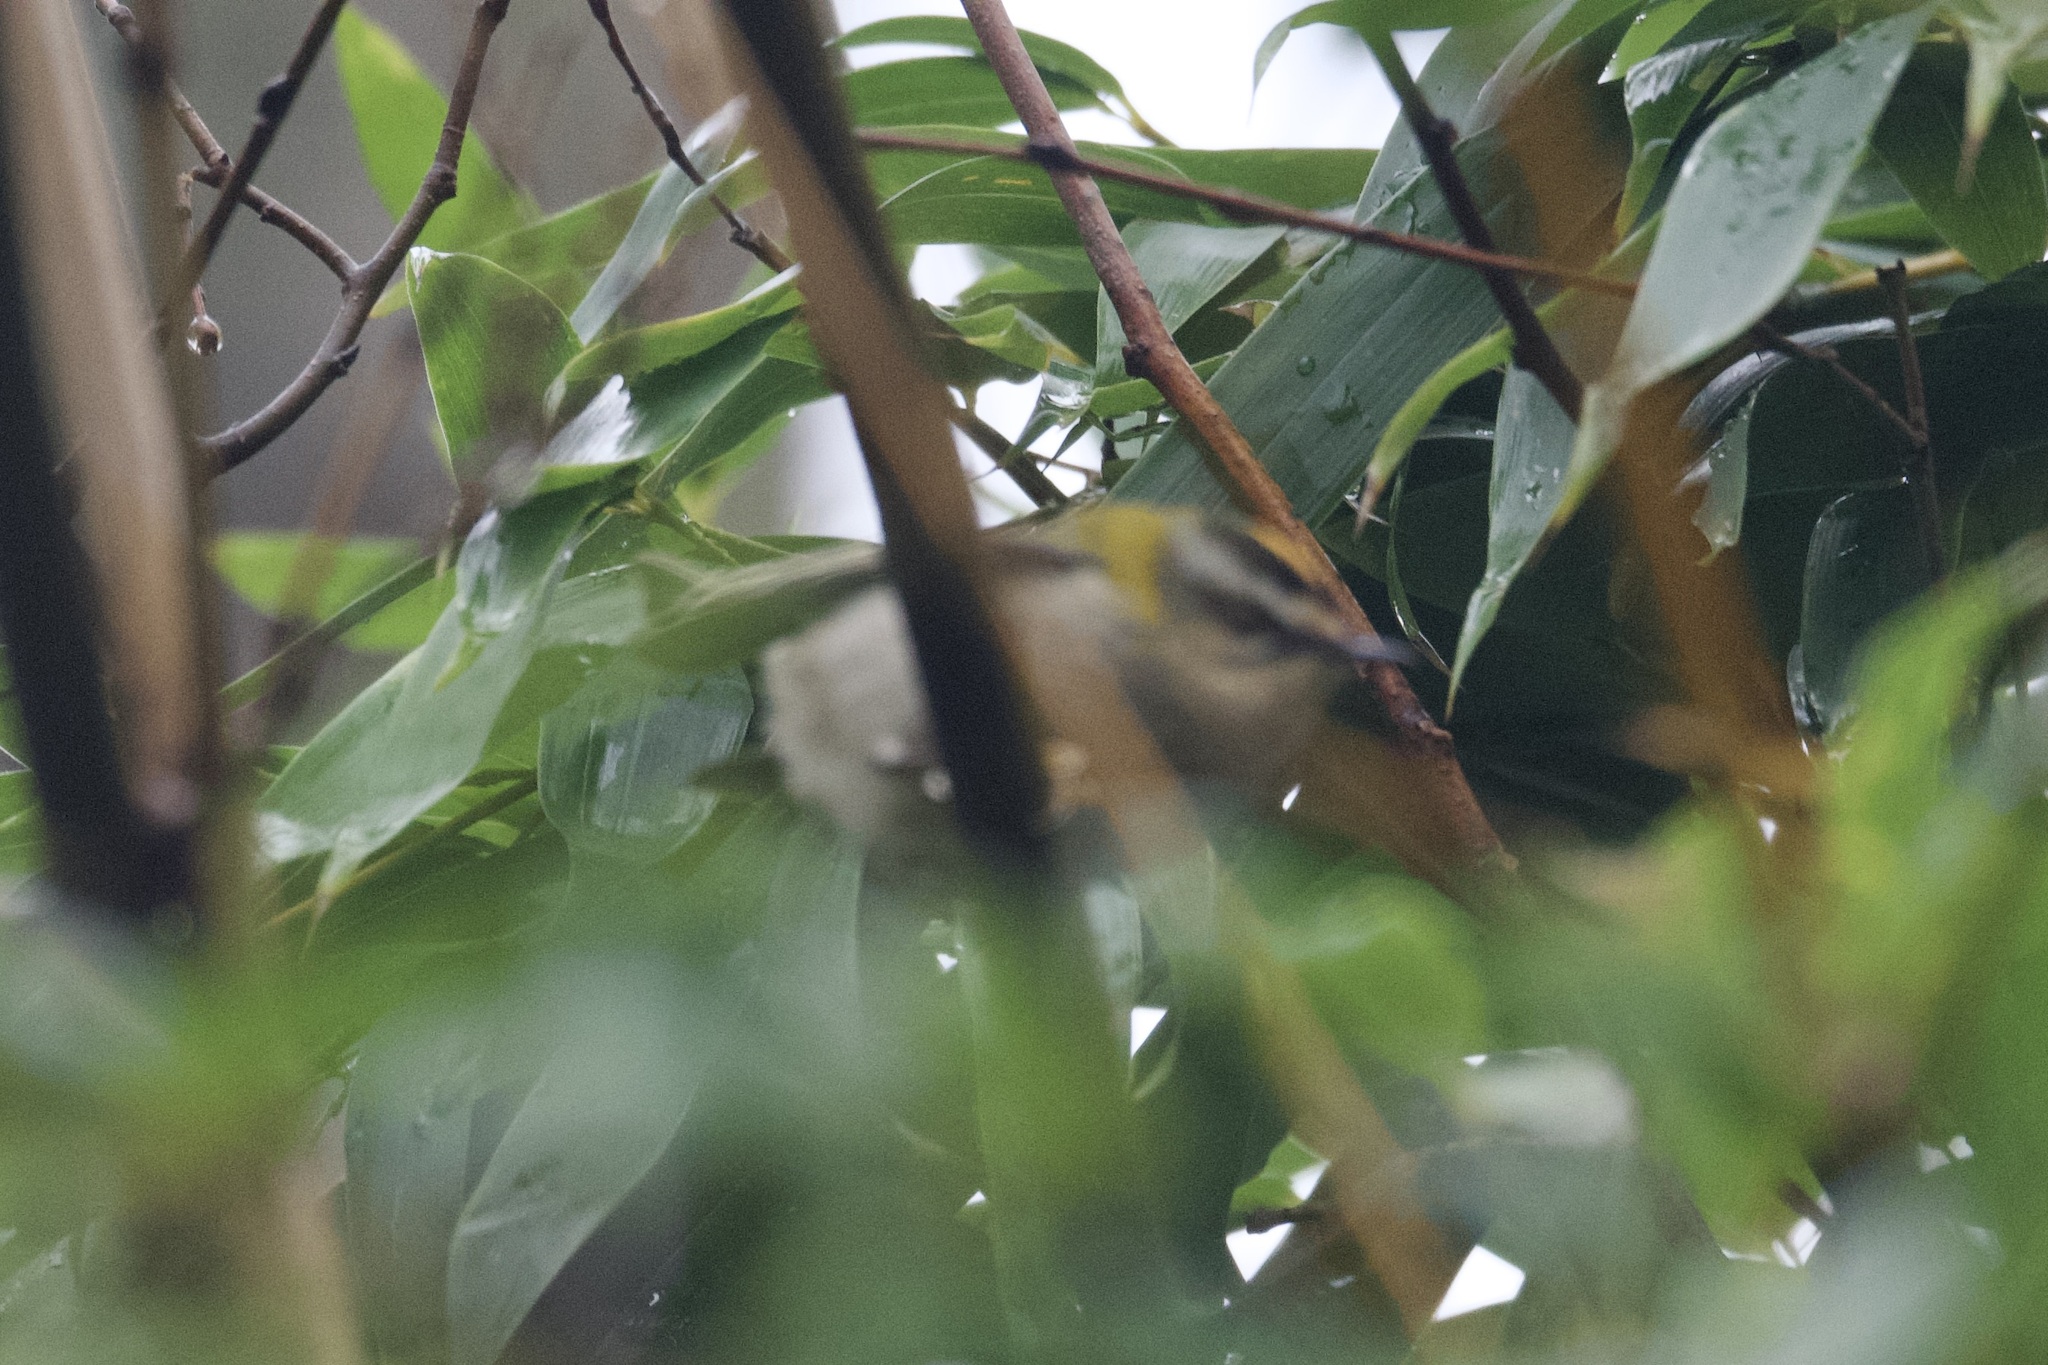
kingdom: Animalia
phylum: Chordata
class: Aves
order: Passeriformes
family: Regulidae
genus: Regulus
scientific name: Regulus ignicapilla
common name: Firecrest
